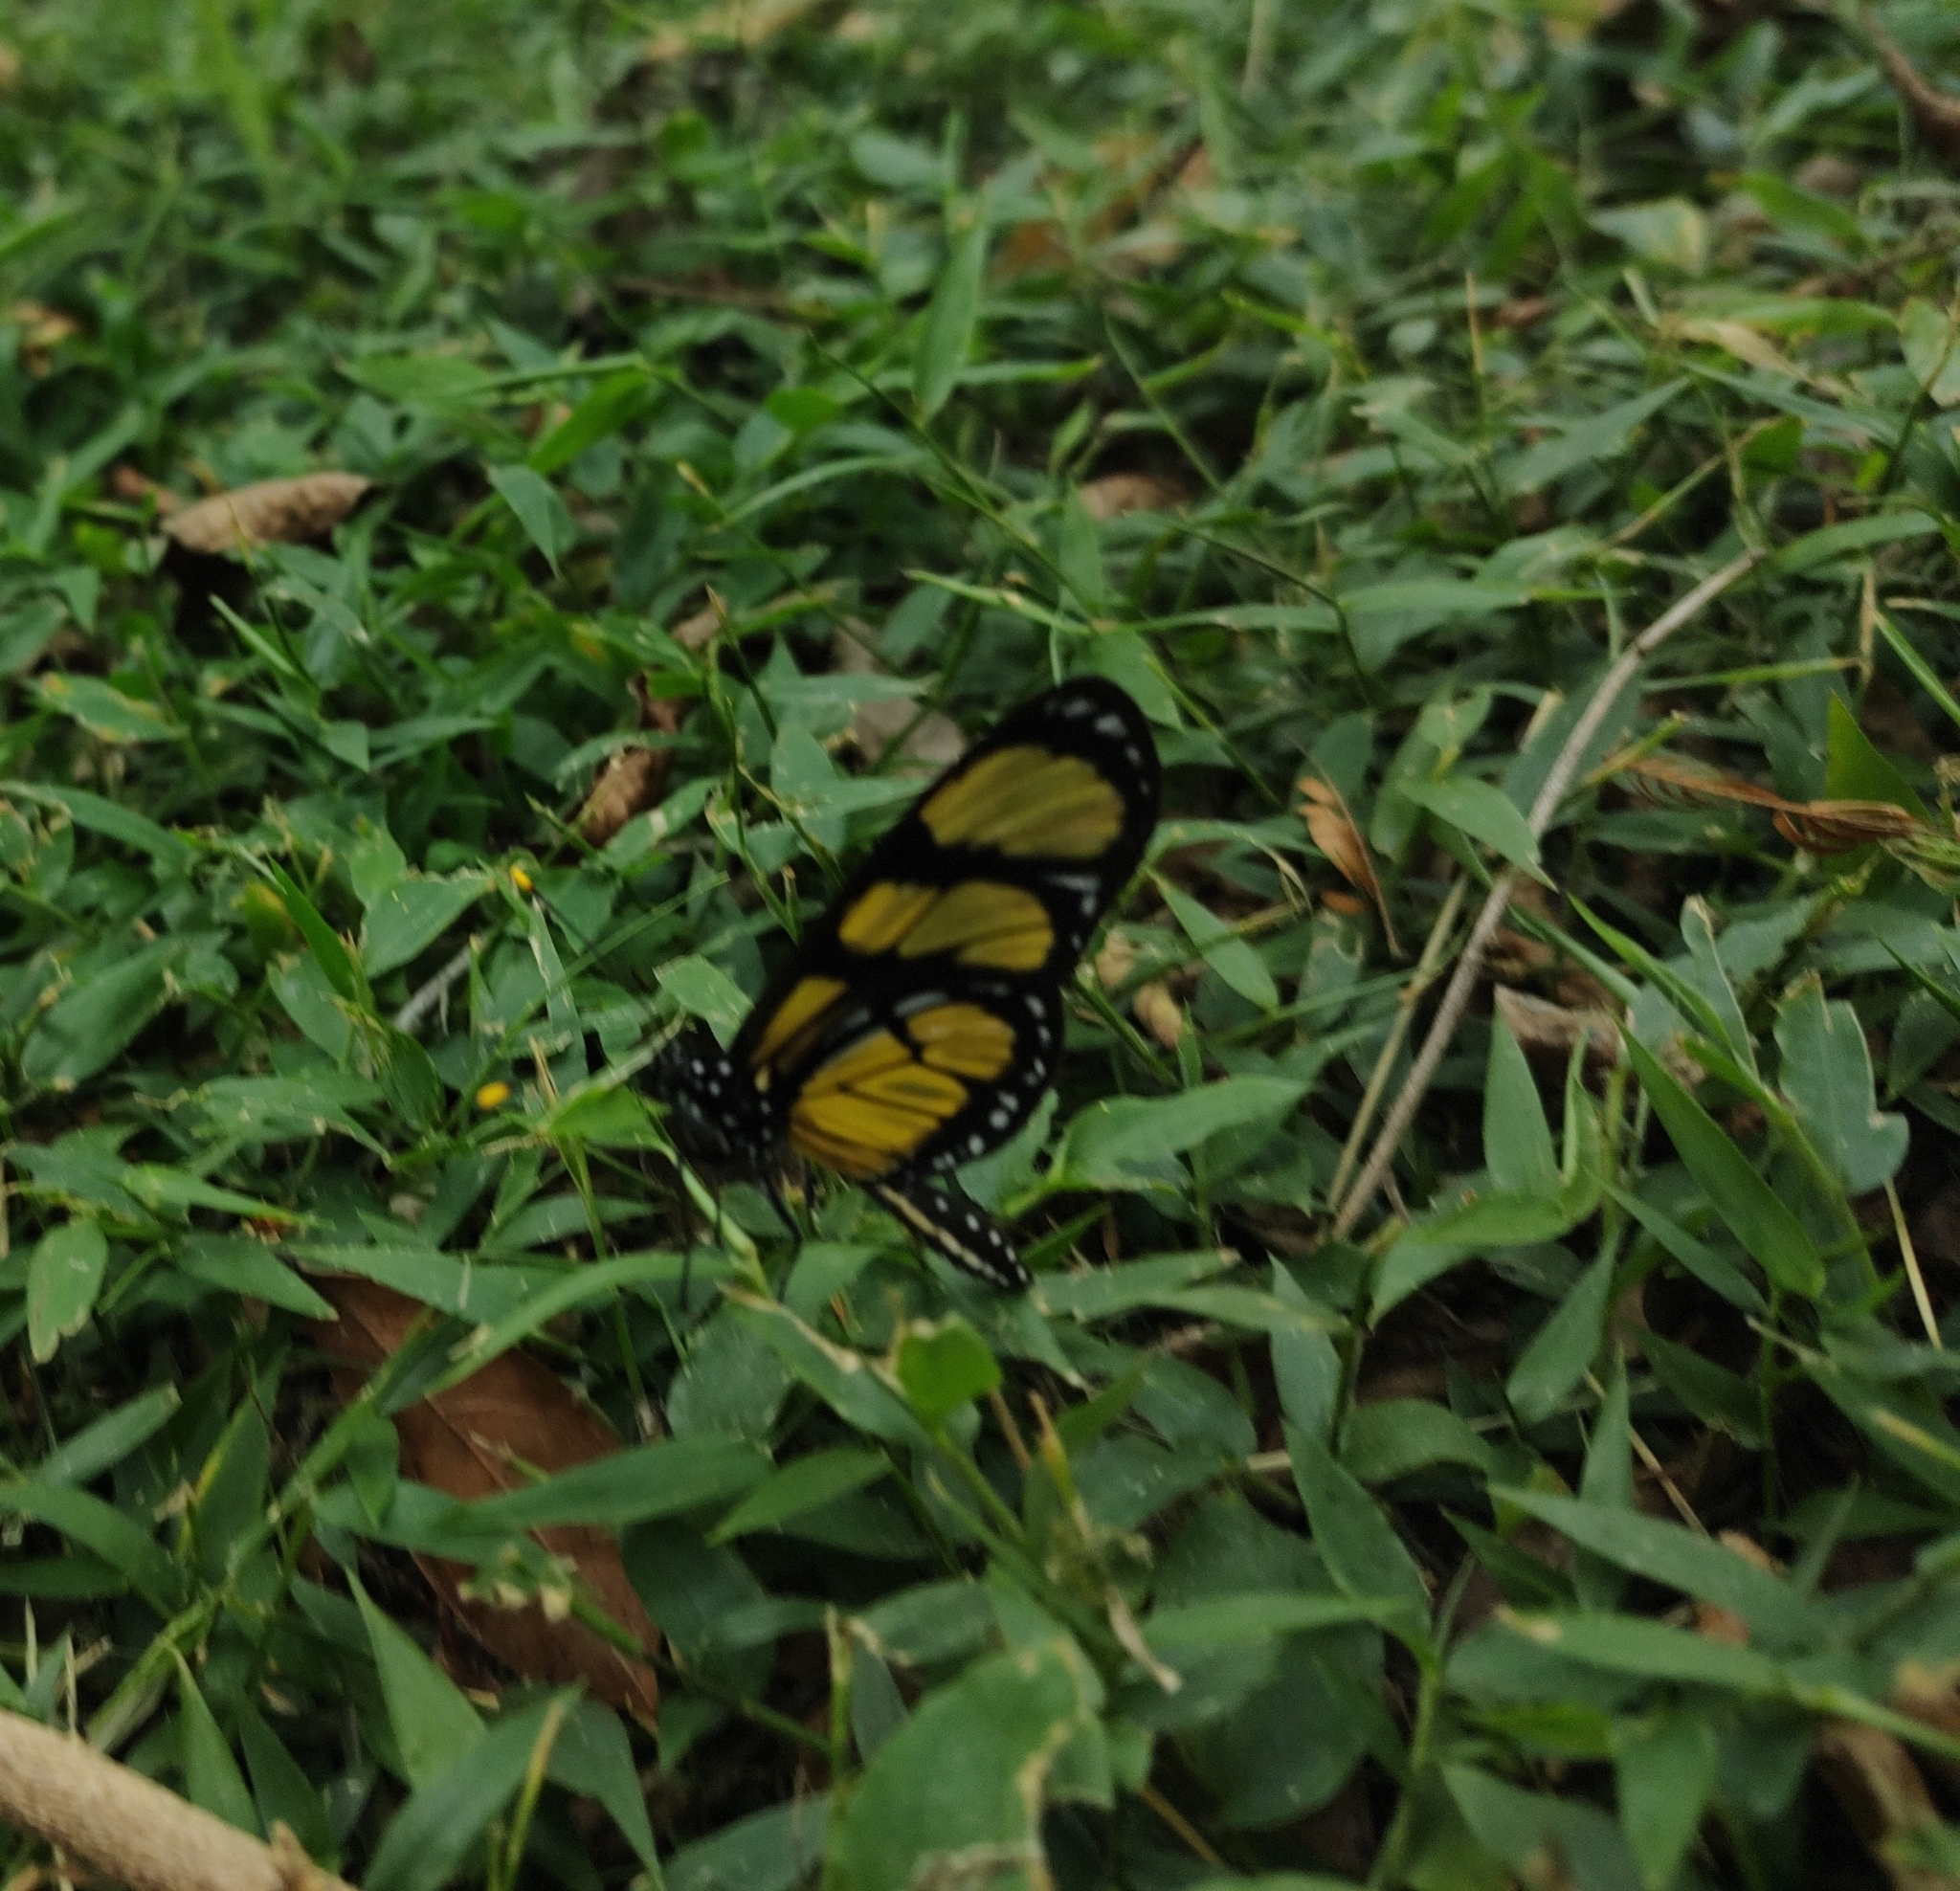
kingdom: Animalia
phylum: Arthropoda
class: Insecta
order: Lepidoptera
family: Nymphalidae
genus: Methona
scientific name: Methona themisto
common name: Themisto amberwing
